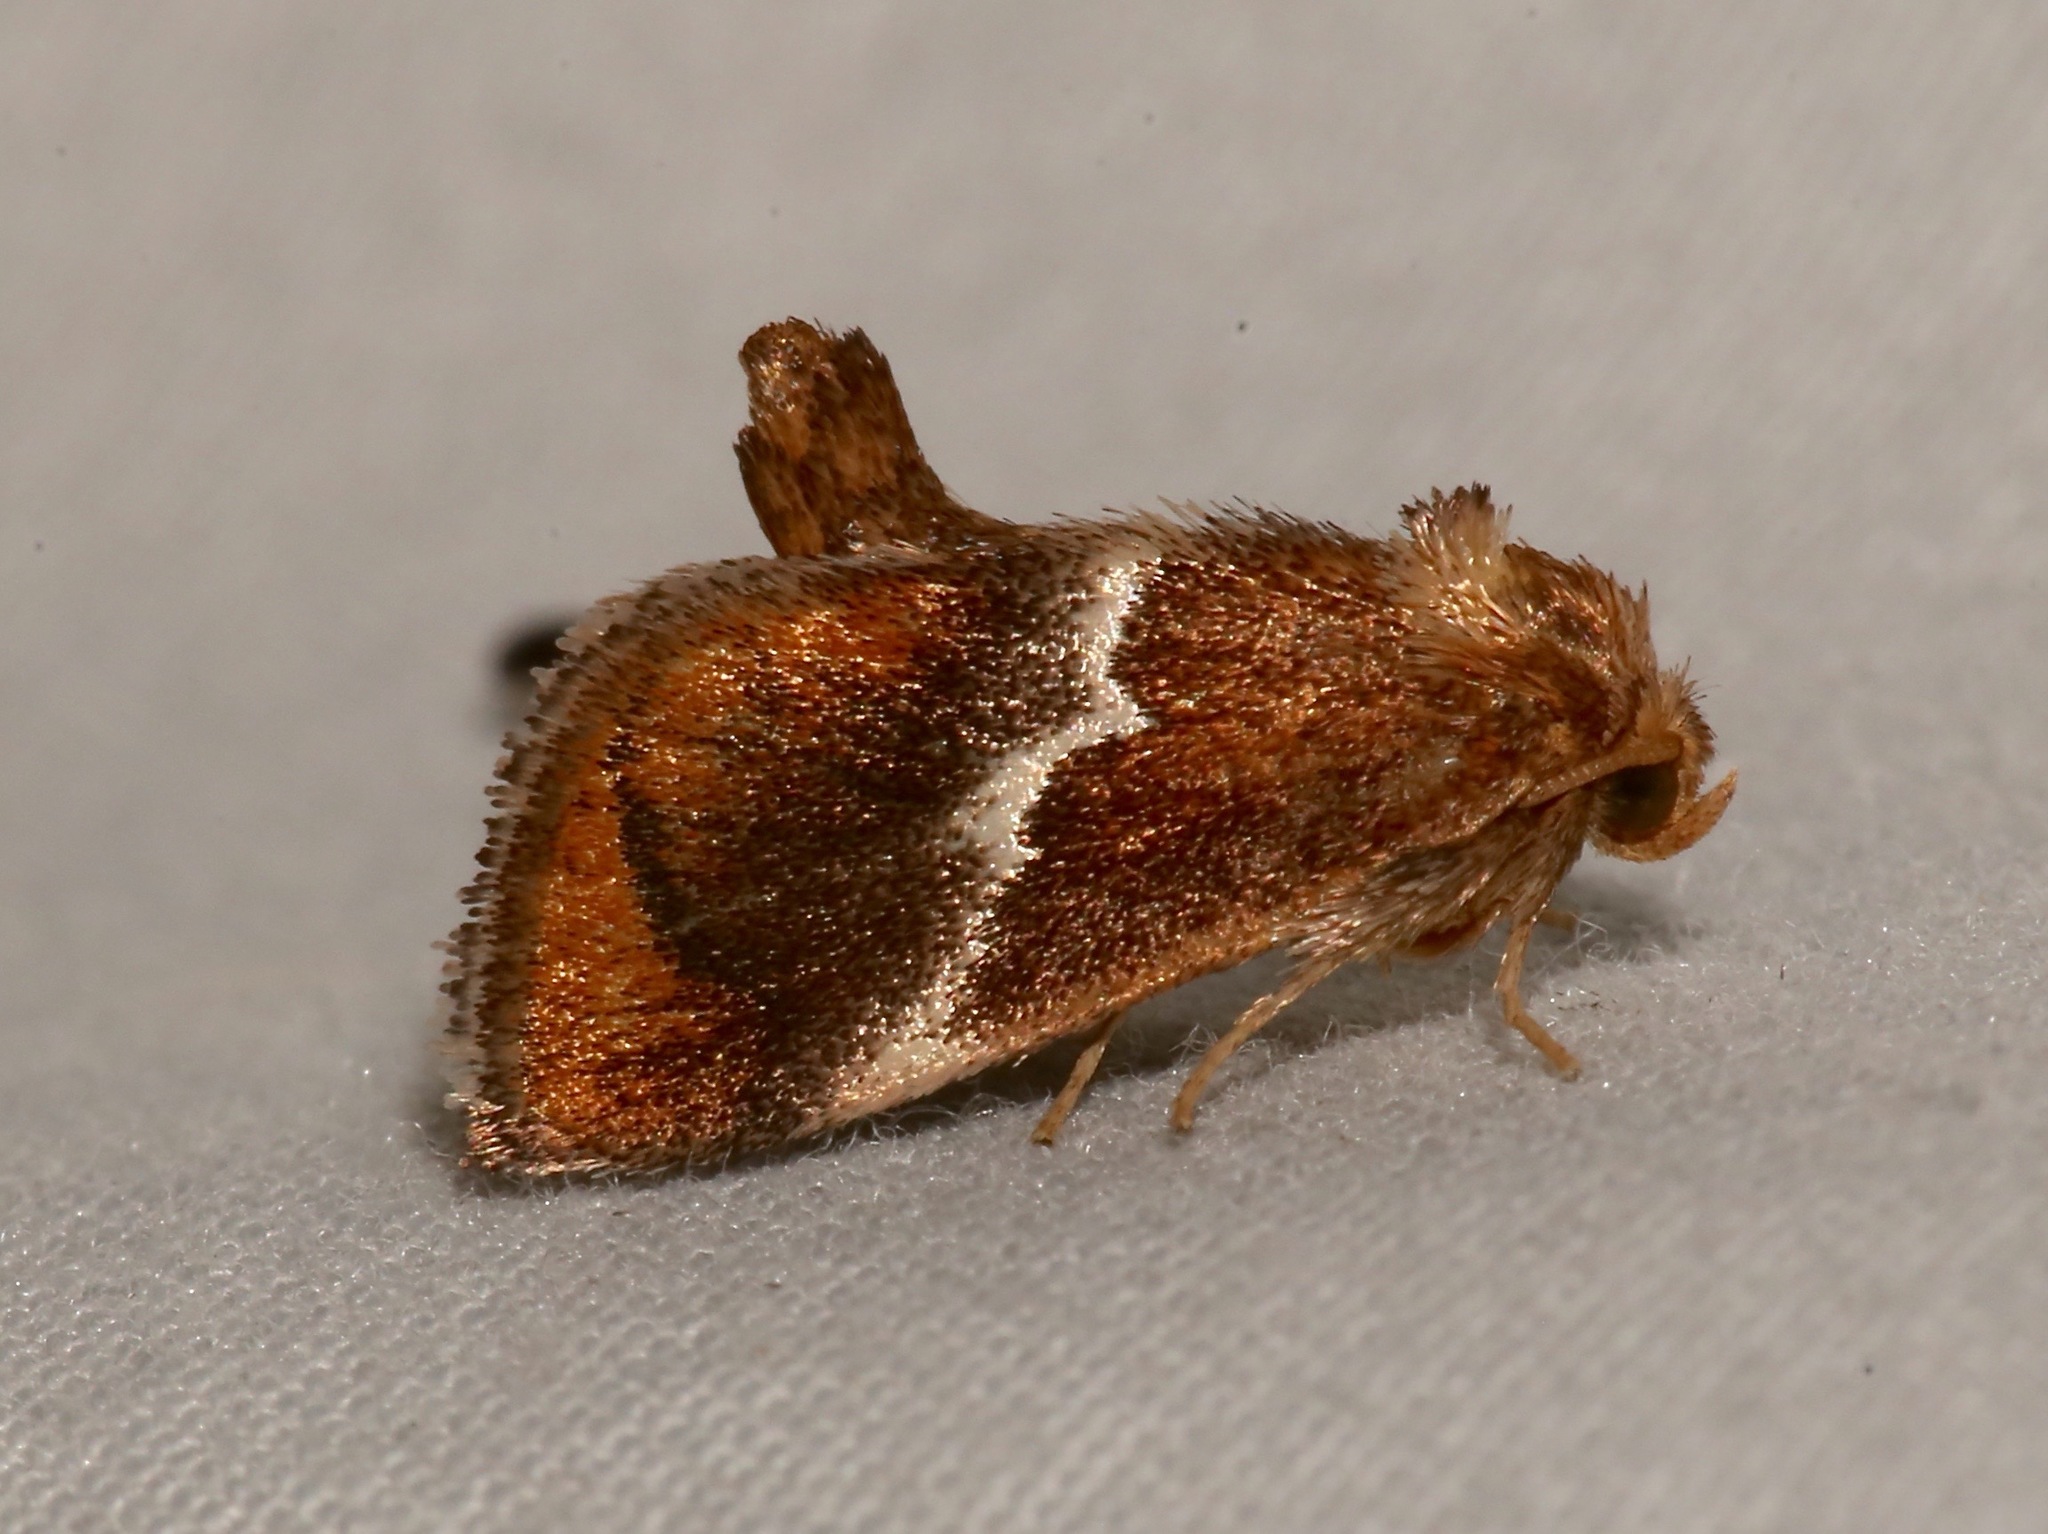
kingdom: Animalia
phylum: Arthropoda
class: Insecta
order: Lepidoptera
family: Limacodidae
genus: Lithacodes
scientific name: Lithacodes fasciola
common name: Yellow-shouldered slug moth
